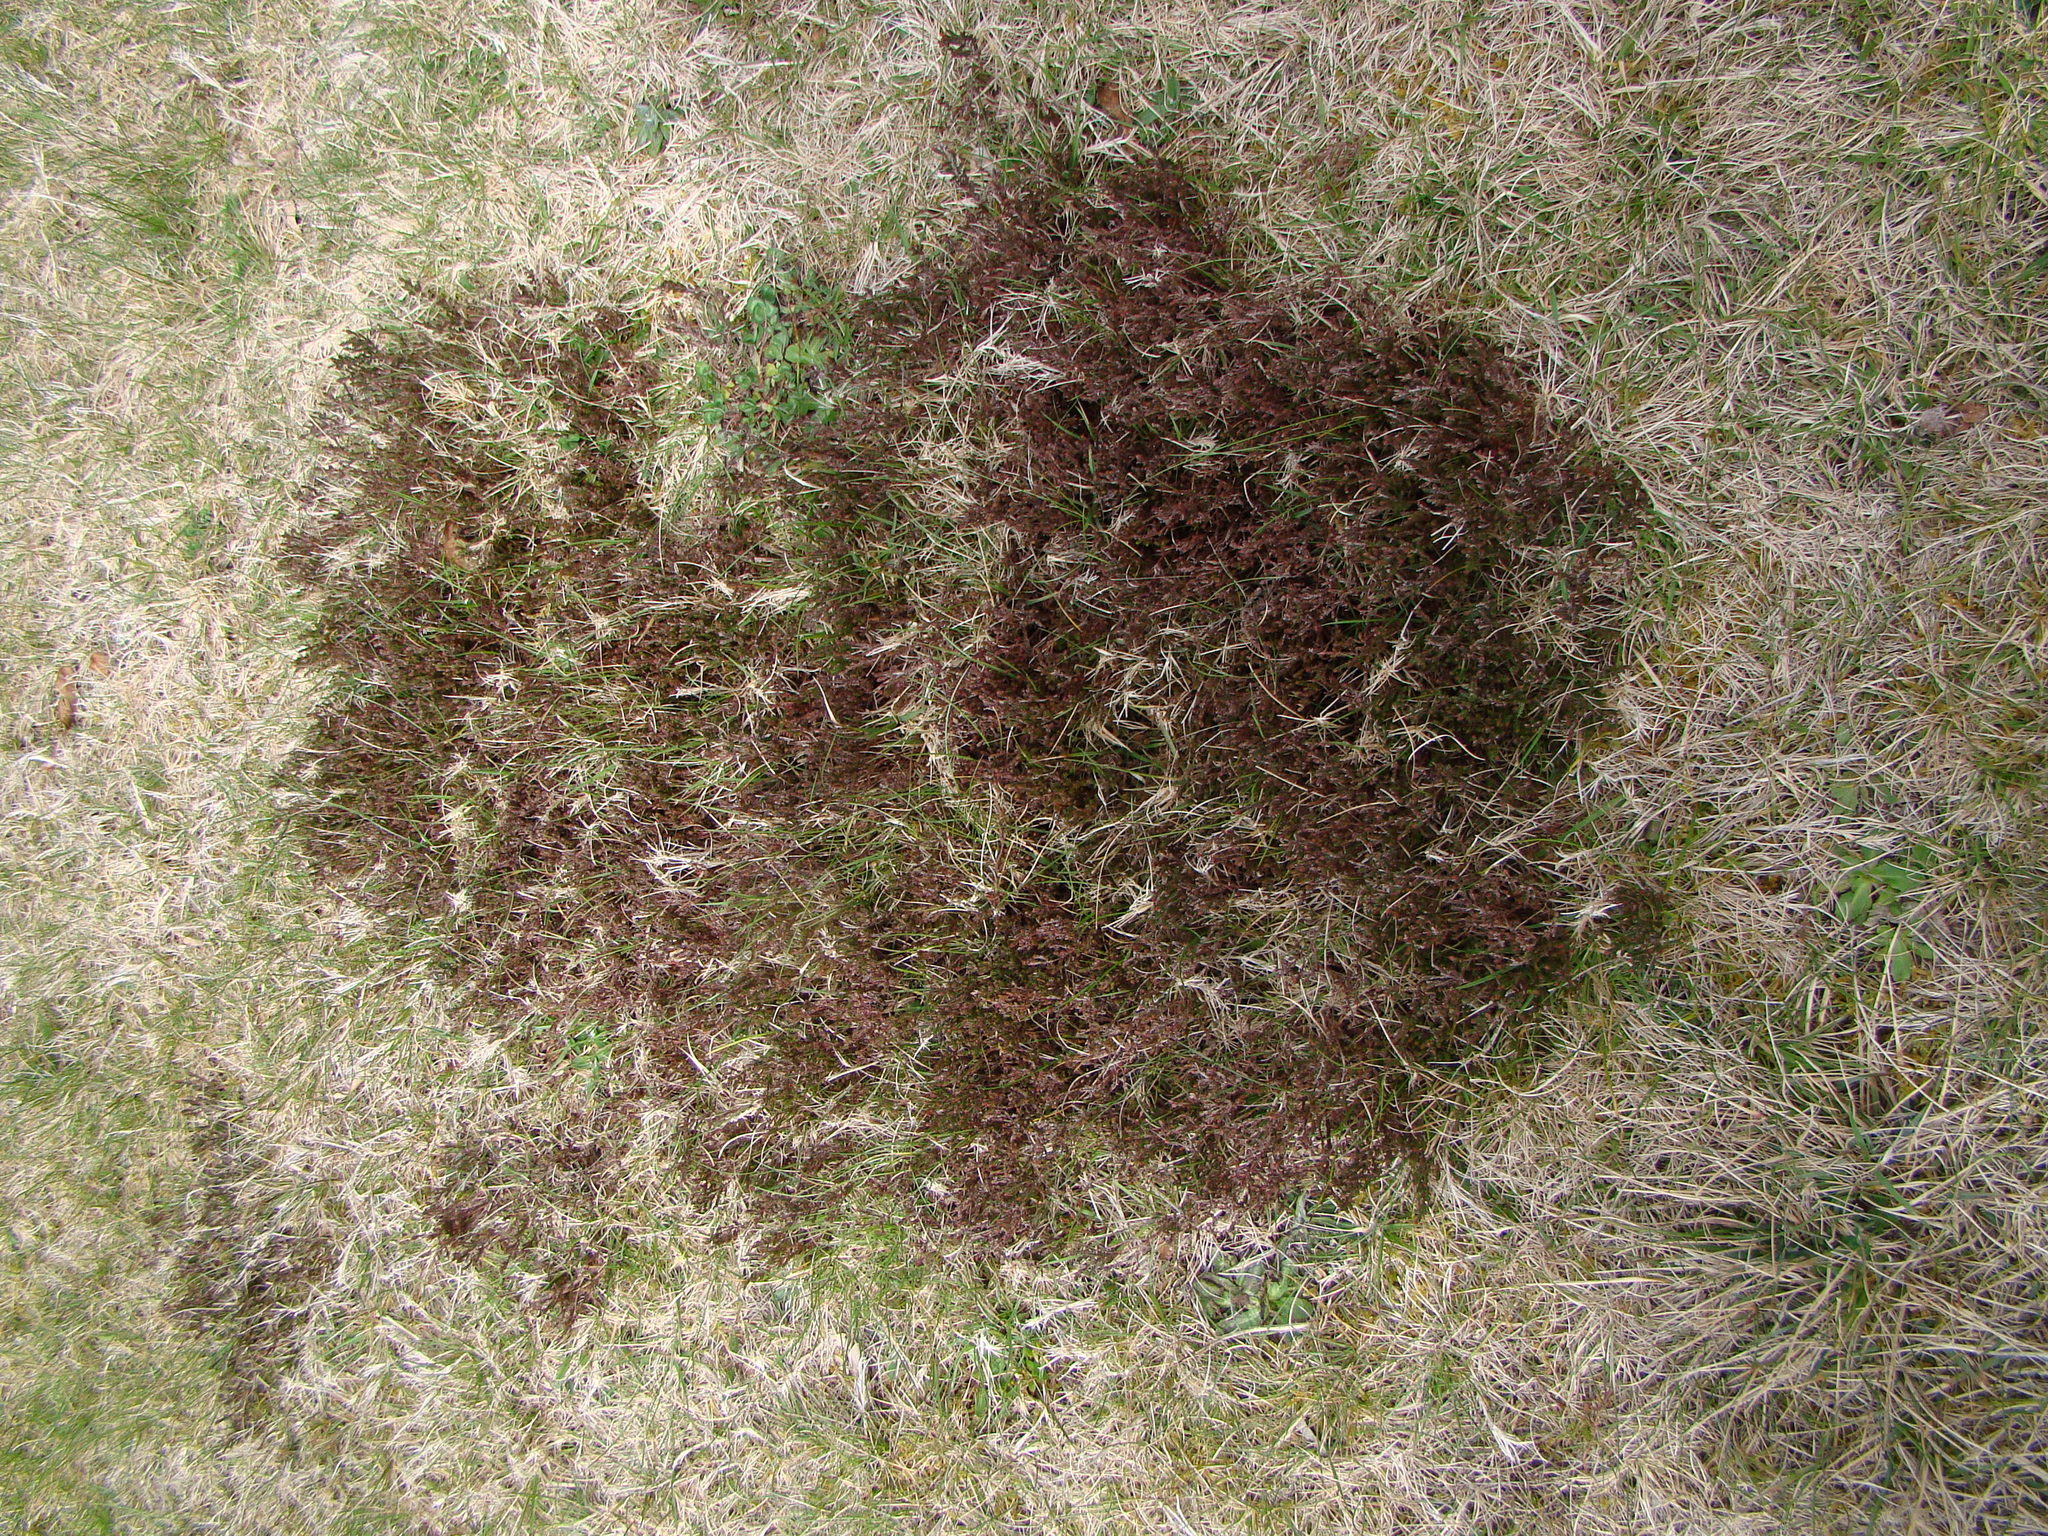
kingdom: Plantae
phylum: Tracheophyta
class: Magnoliopsida
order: Ericales
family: Ericaceae
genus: Calluna
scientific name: Calluna vulgaris
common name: Heather
